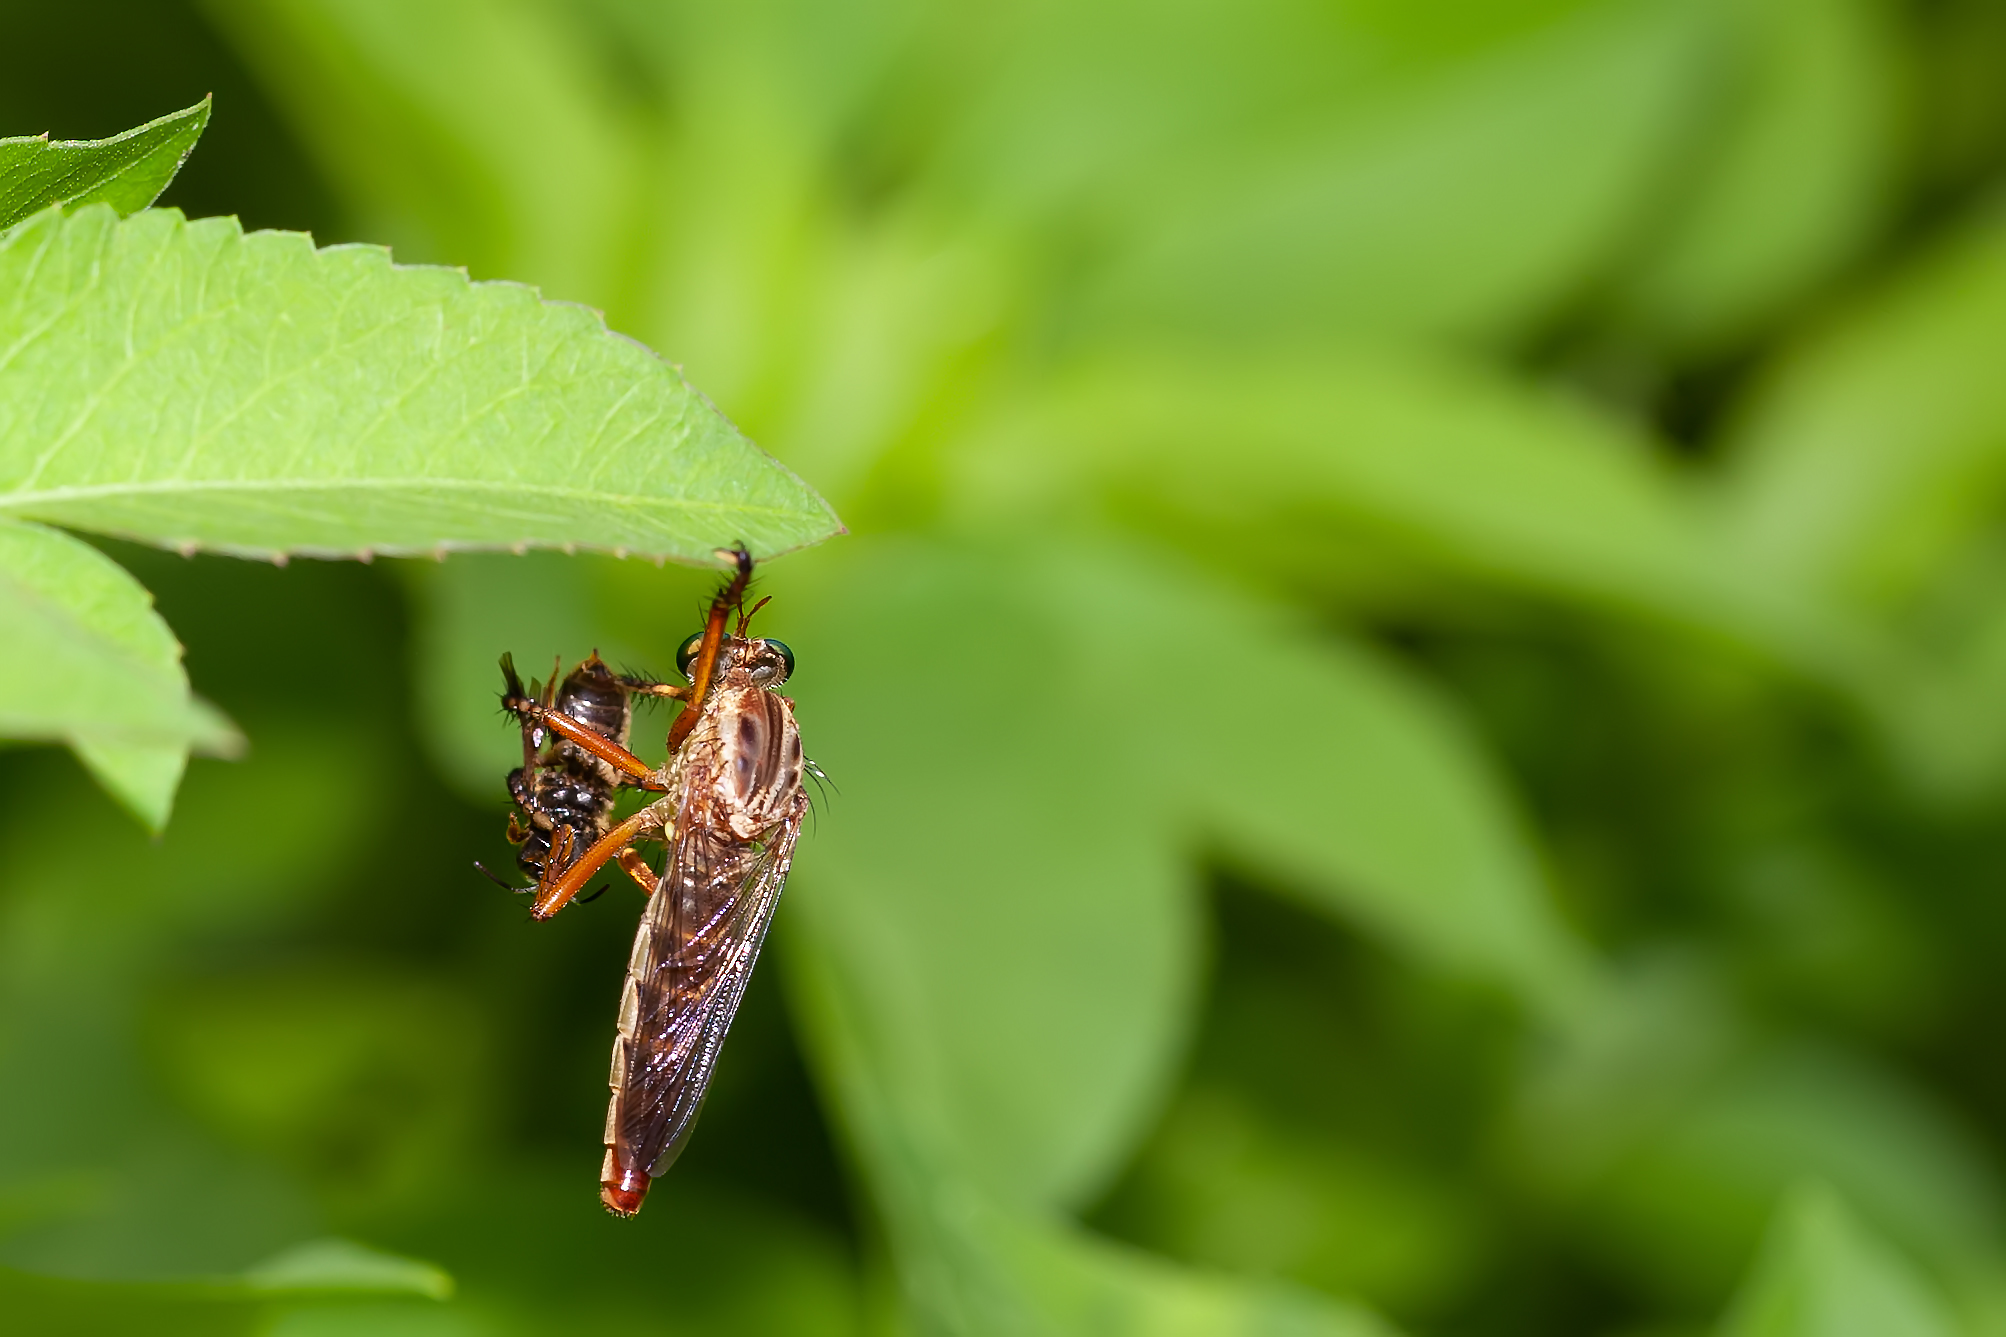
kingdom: Animalia
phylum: Arthropoda
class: Insecta
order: Diptera
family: Asilidae
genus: Diogmites
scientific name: Diogmites salutans
